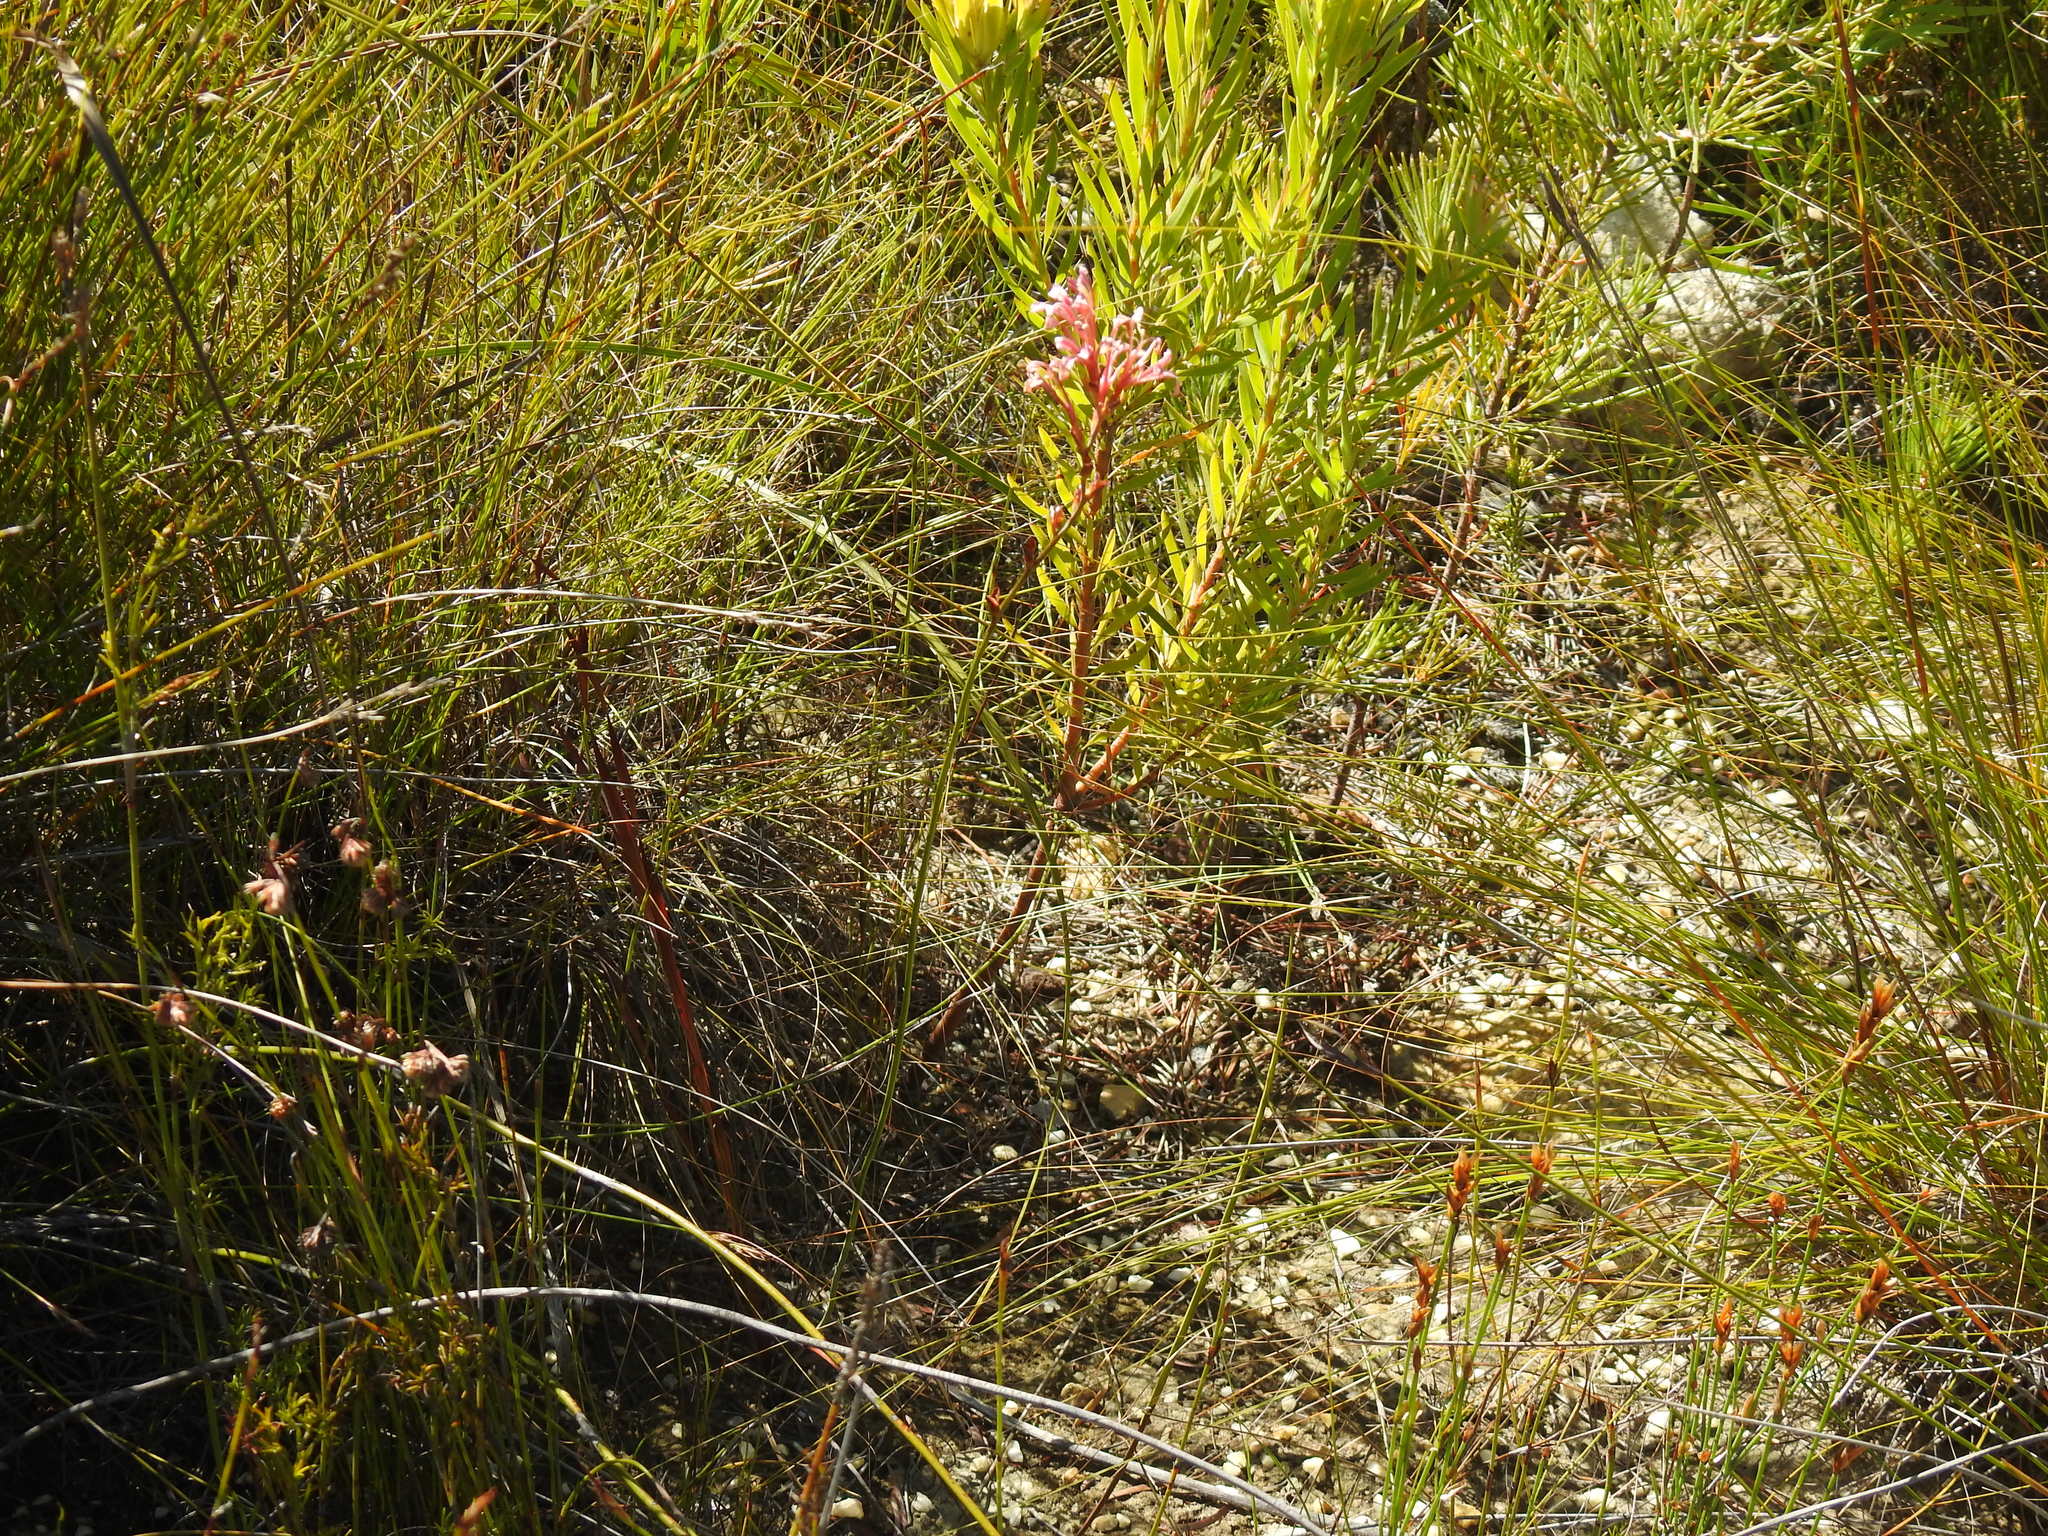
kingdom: Plantae
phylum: Tracheophyta
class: Liliopsida
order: Asparagales
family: Iridaceae
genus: Tritoniopsis
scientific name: Tritoniopsis dodii
